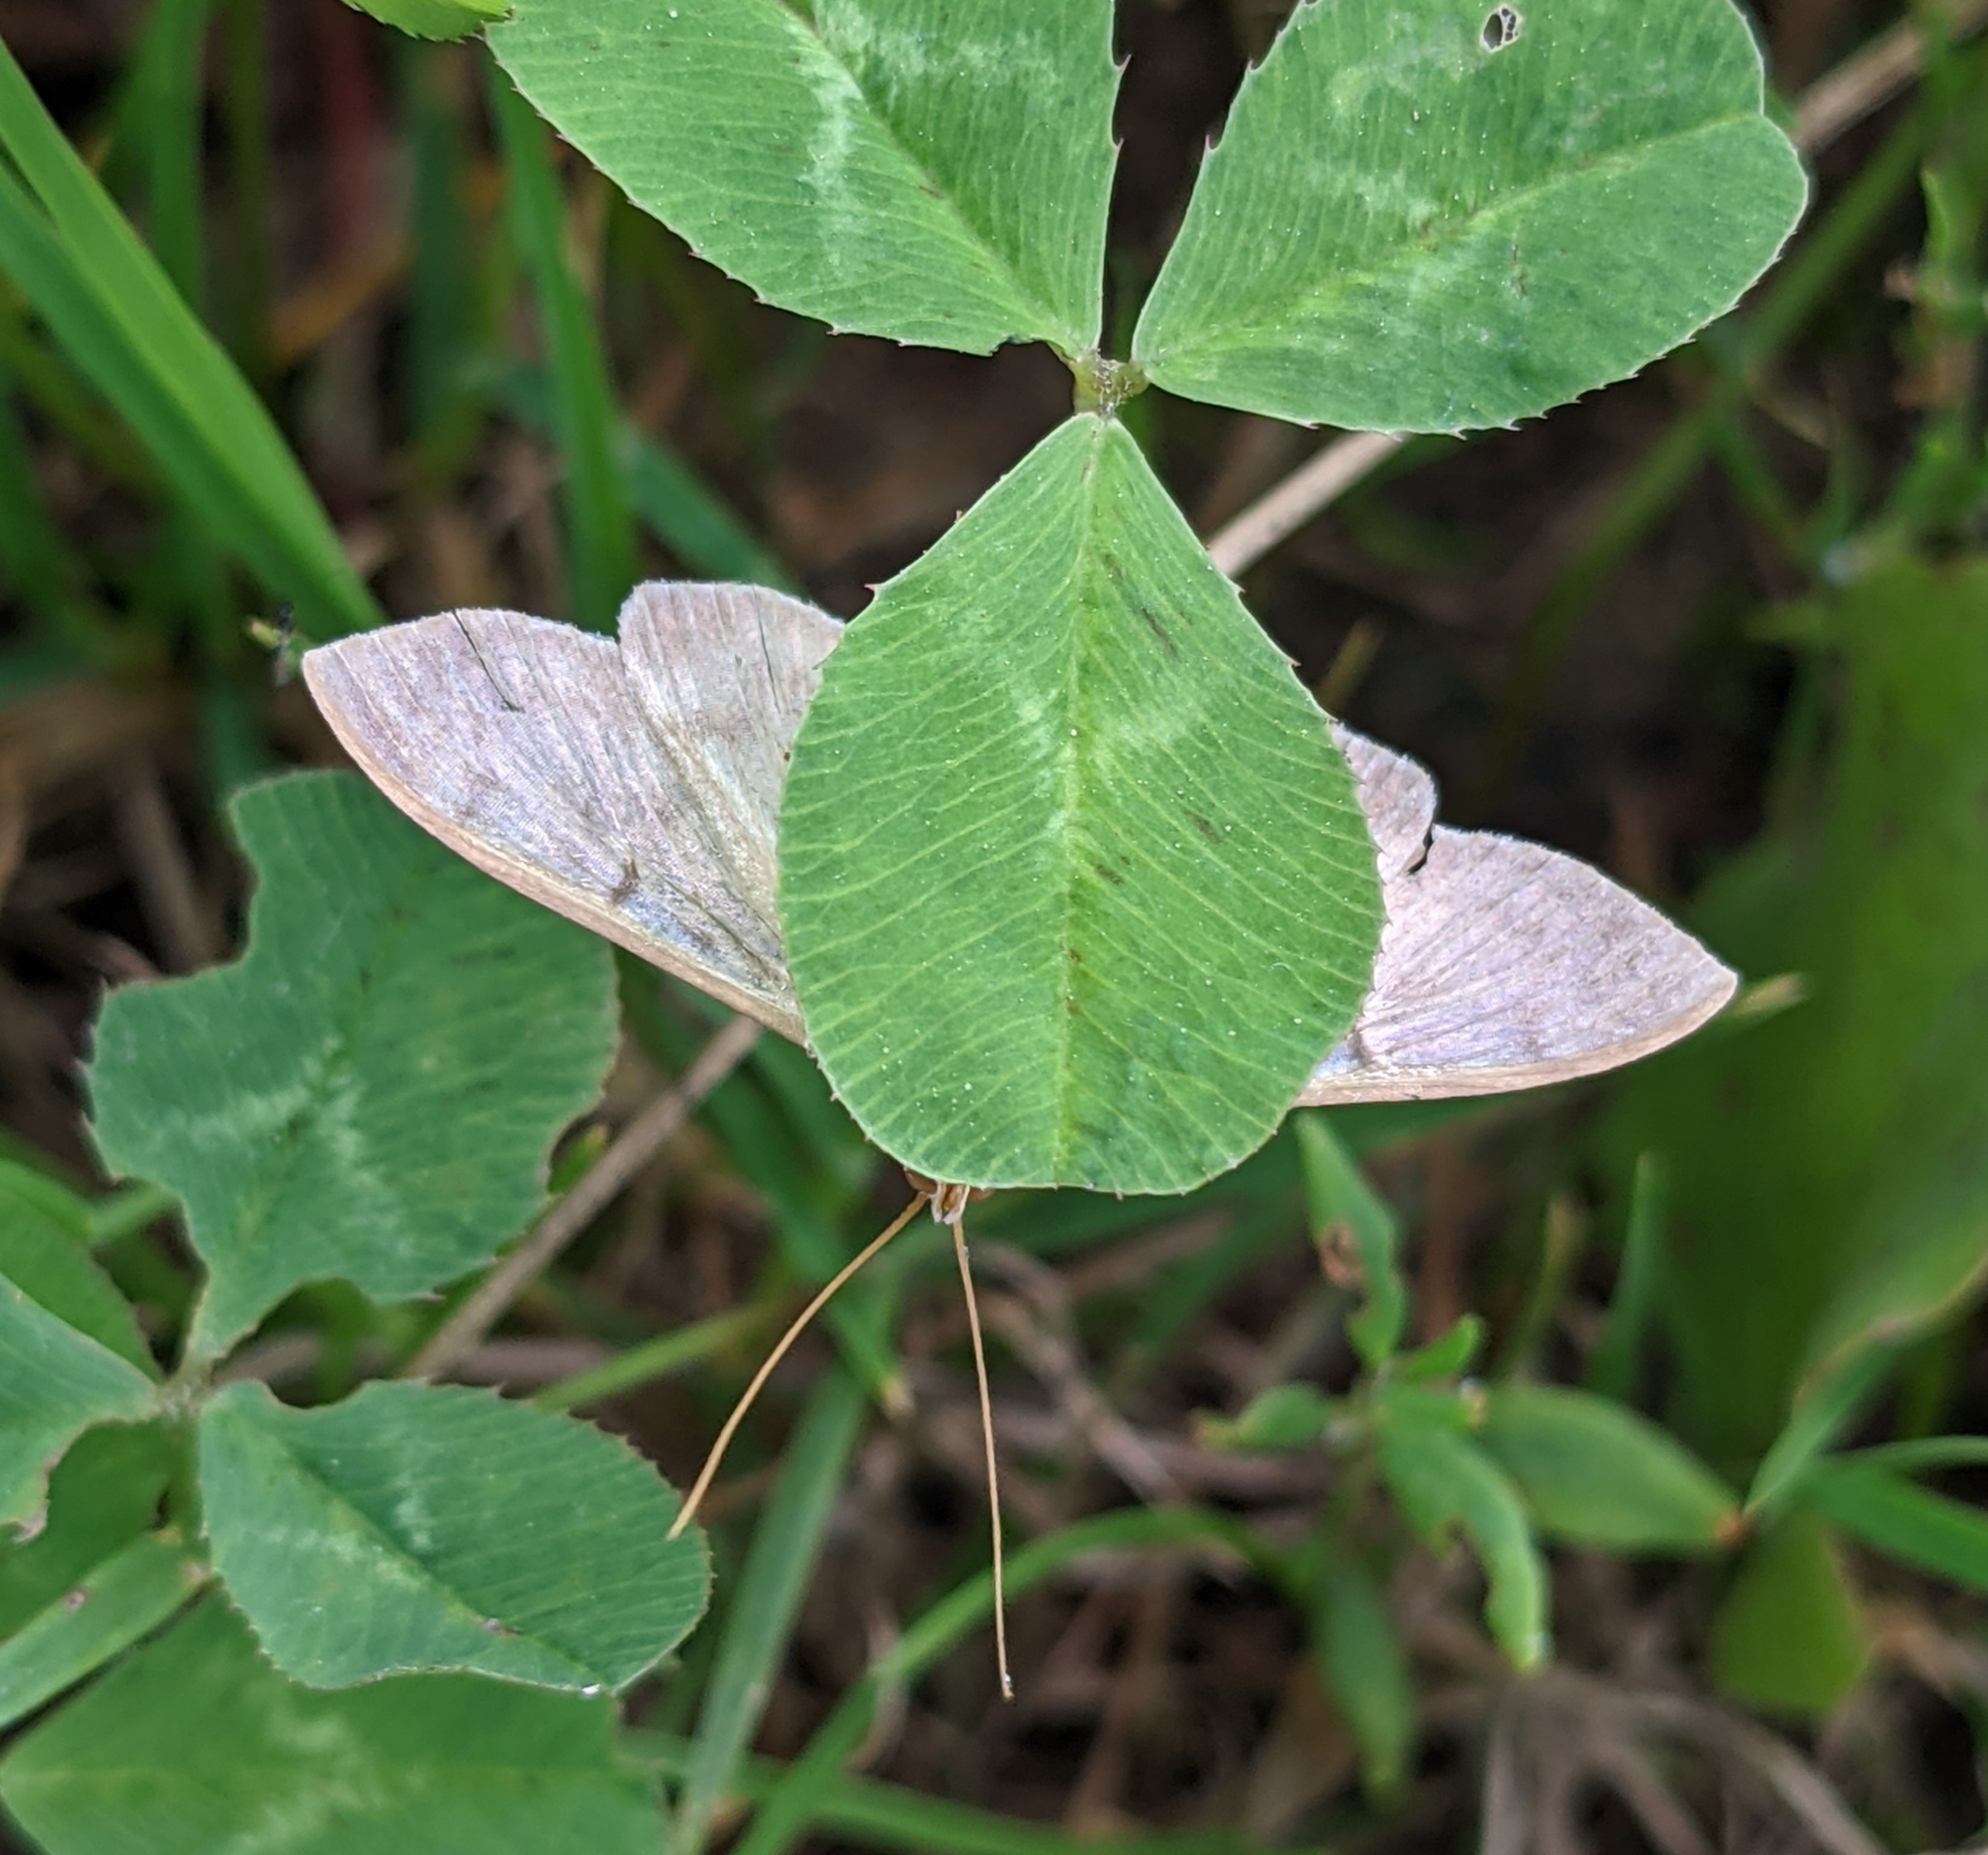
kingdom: Animalia
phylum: Arthropoda
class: Insecta
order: Lepidoptera
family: Crambidae
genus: Patania
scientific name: Patania ruralis
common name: Mother of pearl
